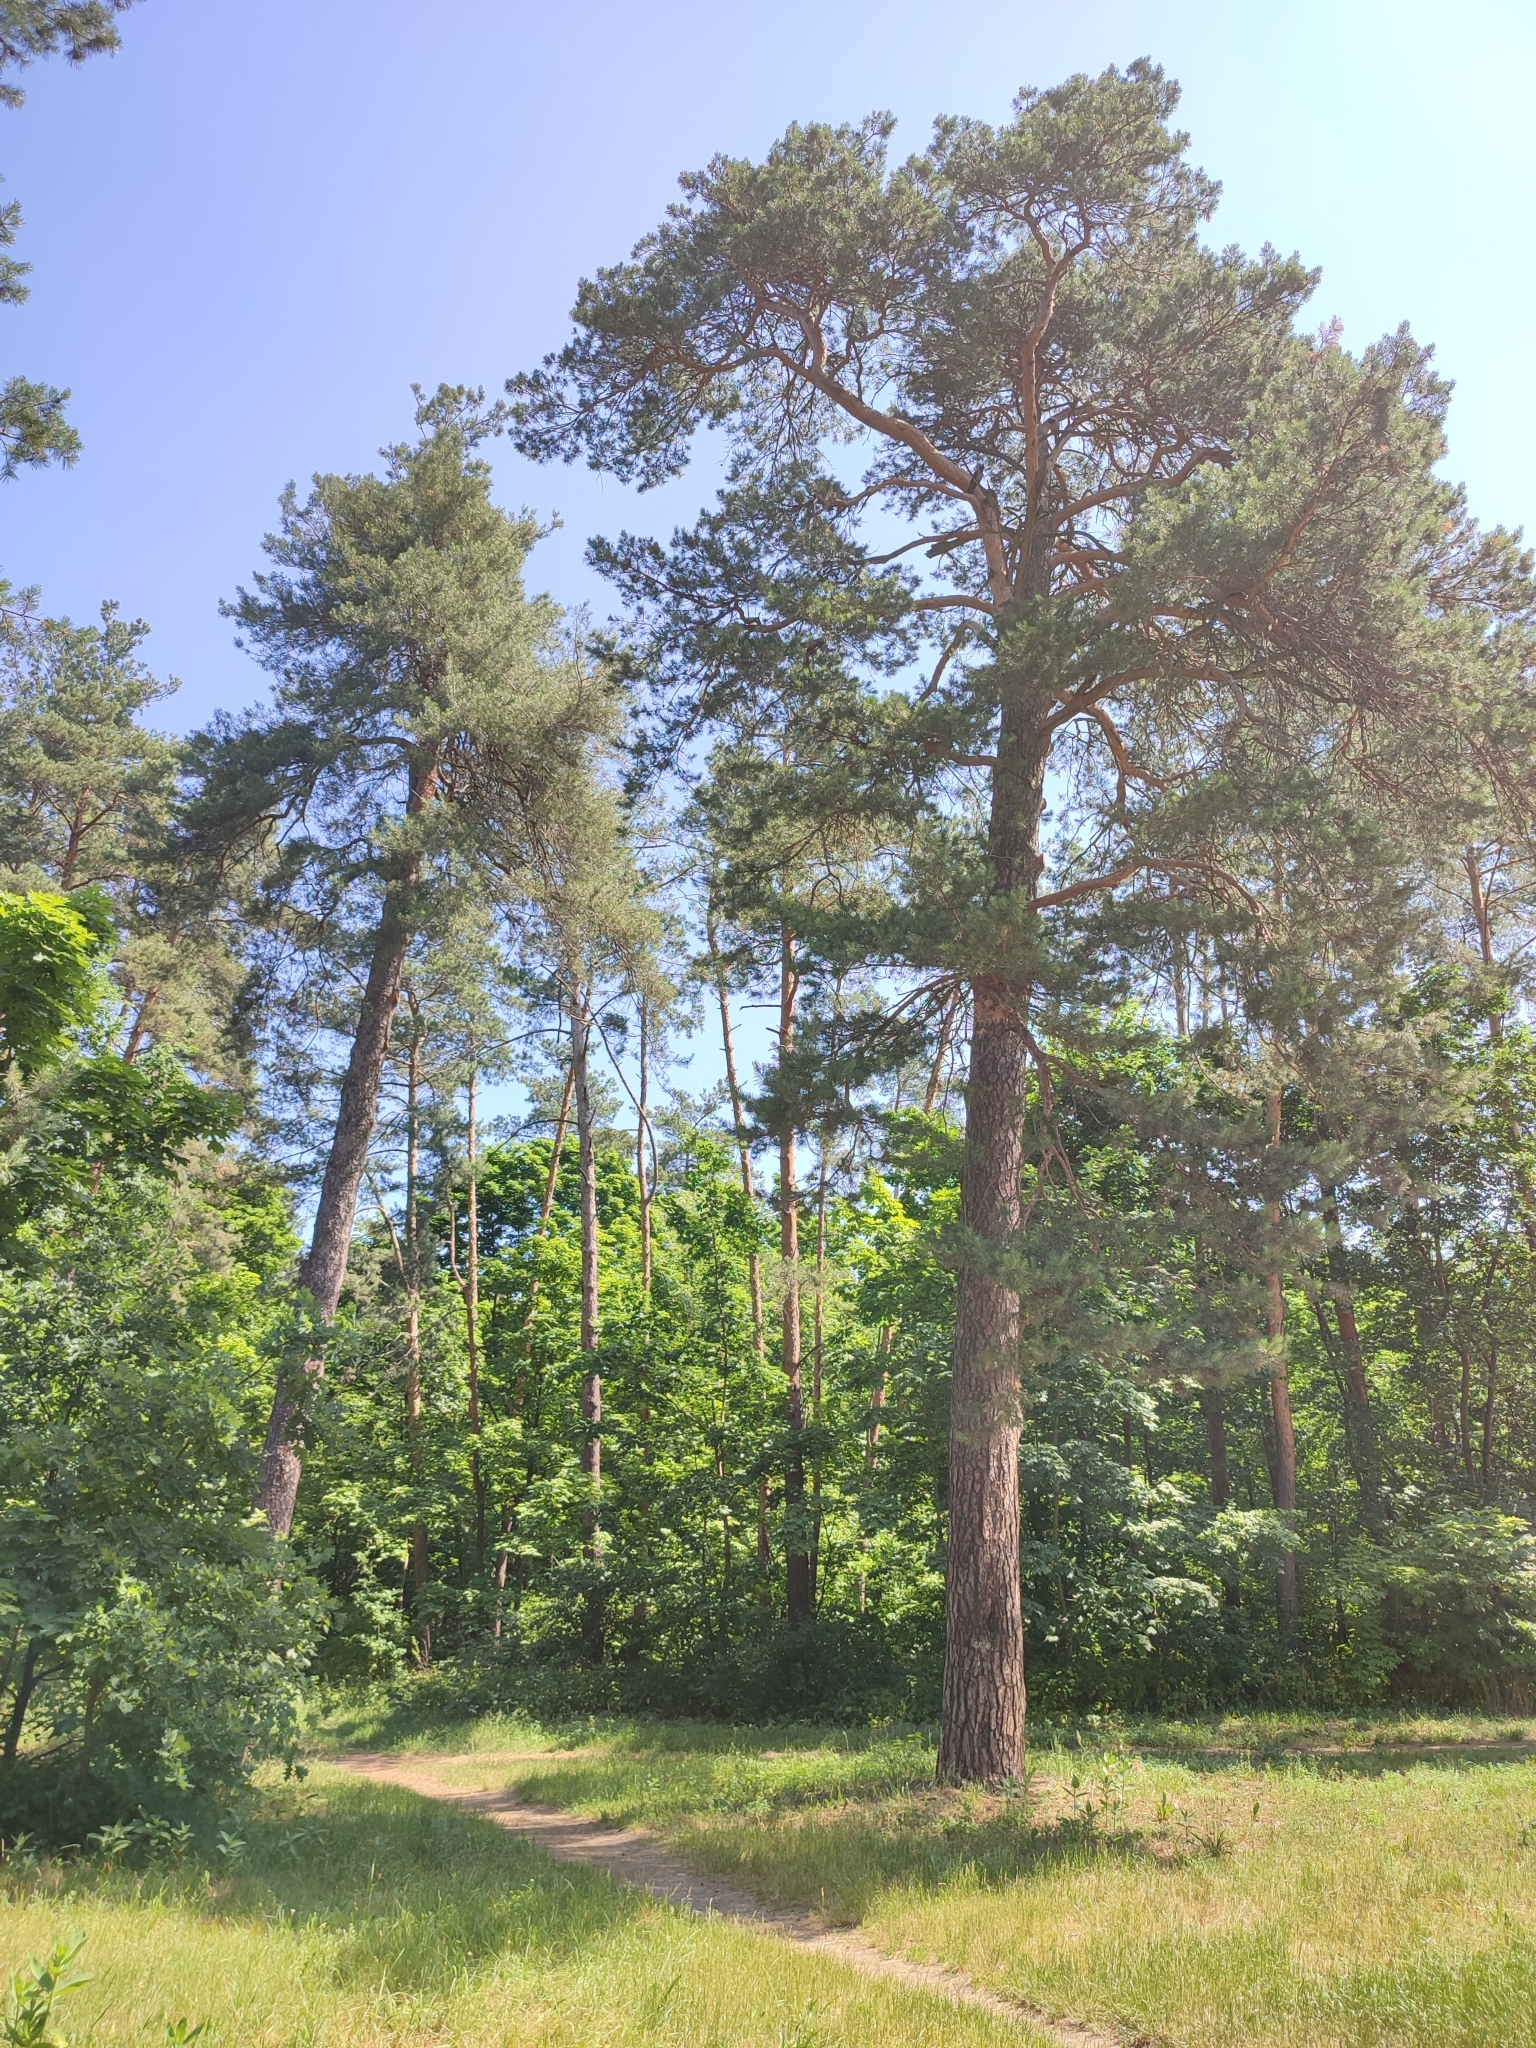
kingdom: Plantae
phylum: Tracheophyta
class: Pinopsida
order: Pinales
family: Pinaceae
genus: Pinus
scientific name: Pinus sylvestris
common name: Scots pine
